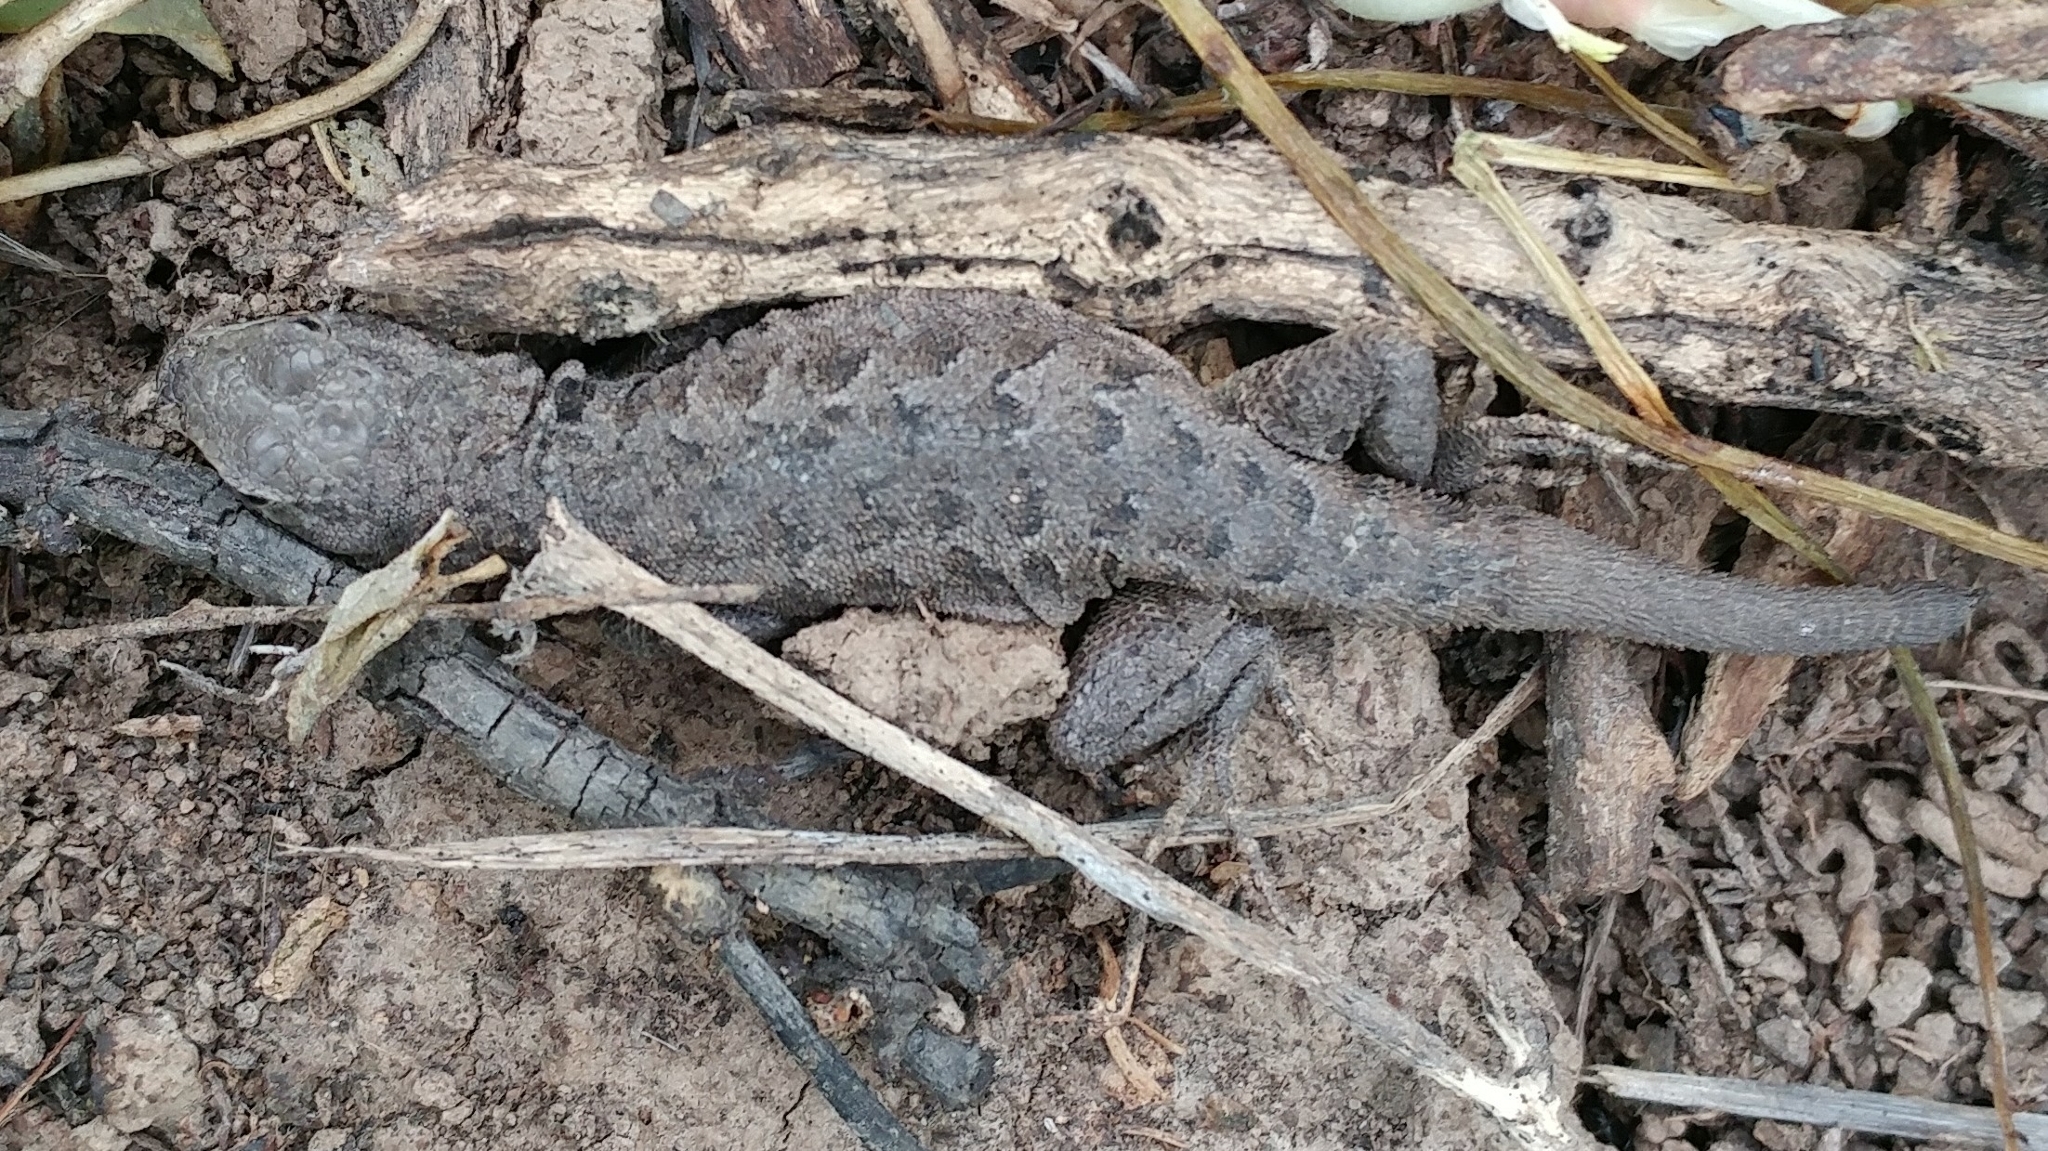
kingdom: Animalia
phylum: Chordata
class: Squamata
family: Phrynosomatidae
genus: Uta
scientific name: Uta stansburiana
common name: Side-blotched lizard
